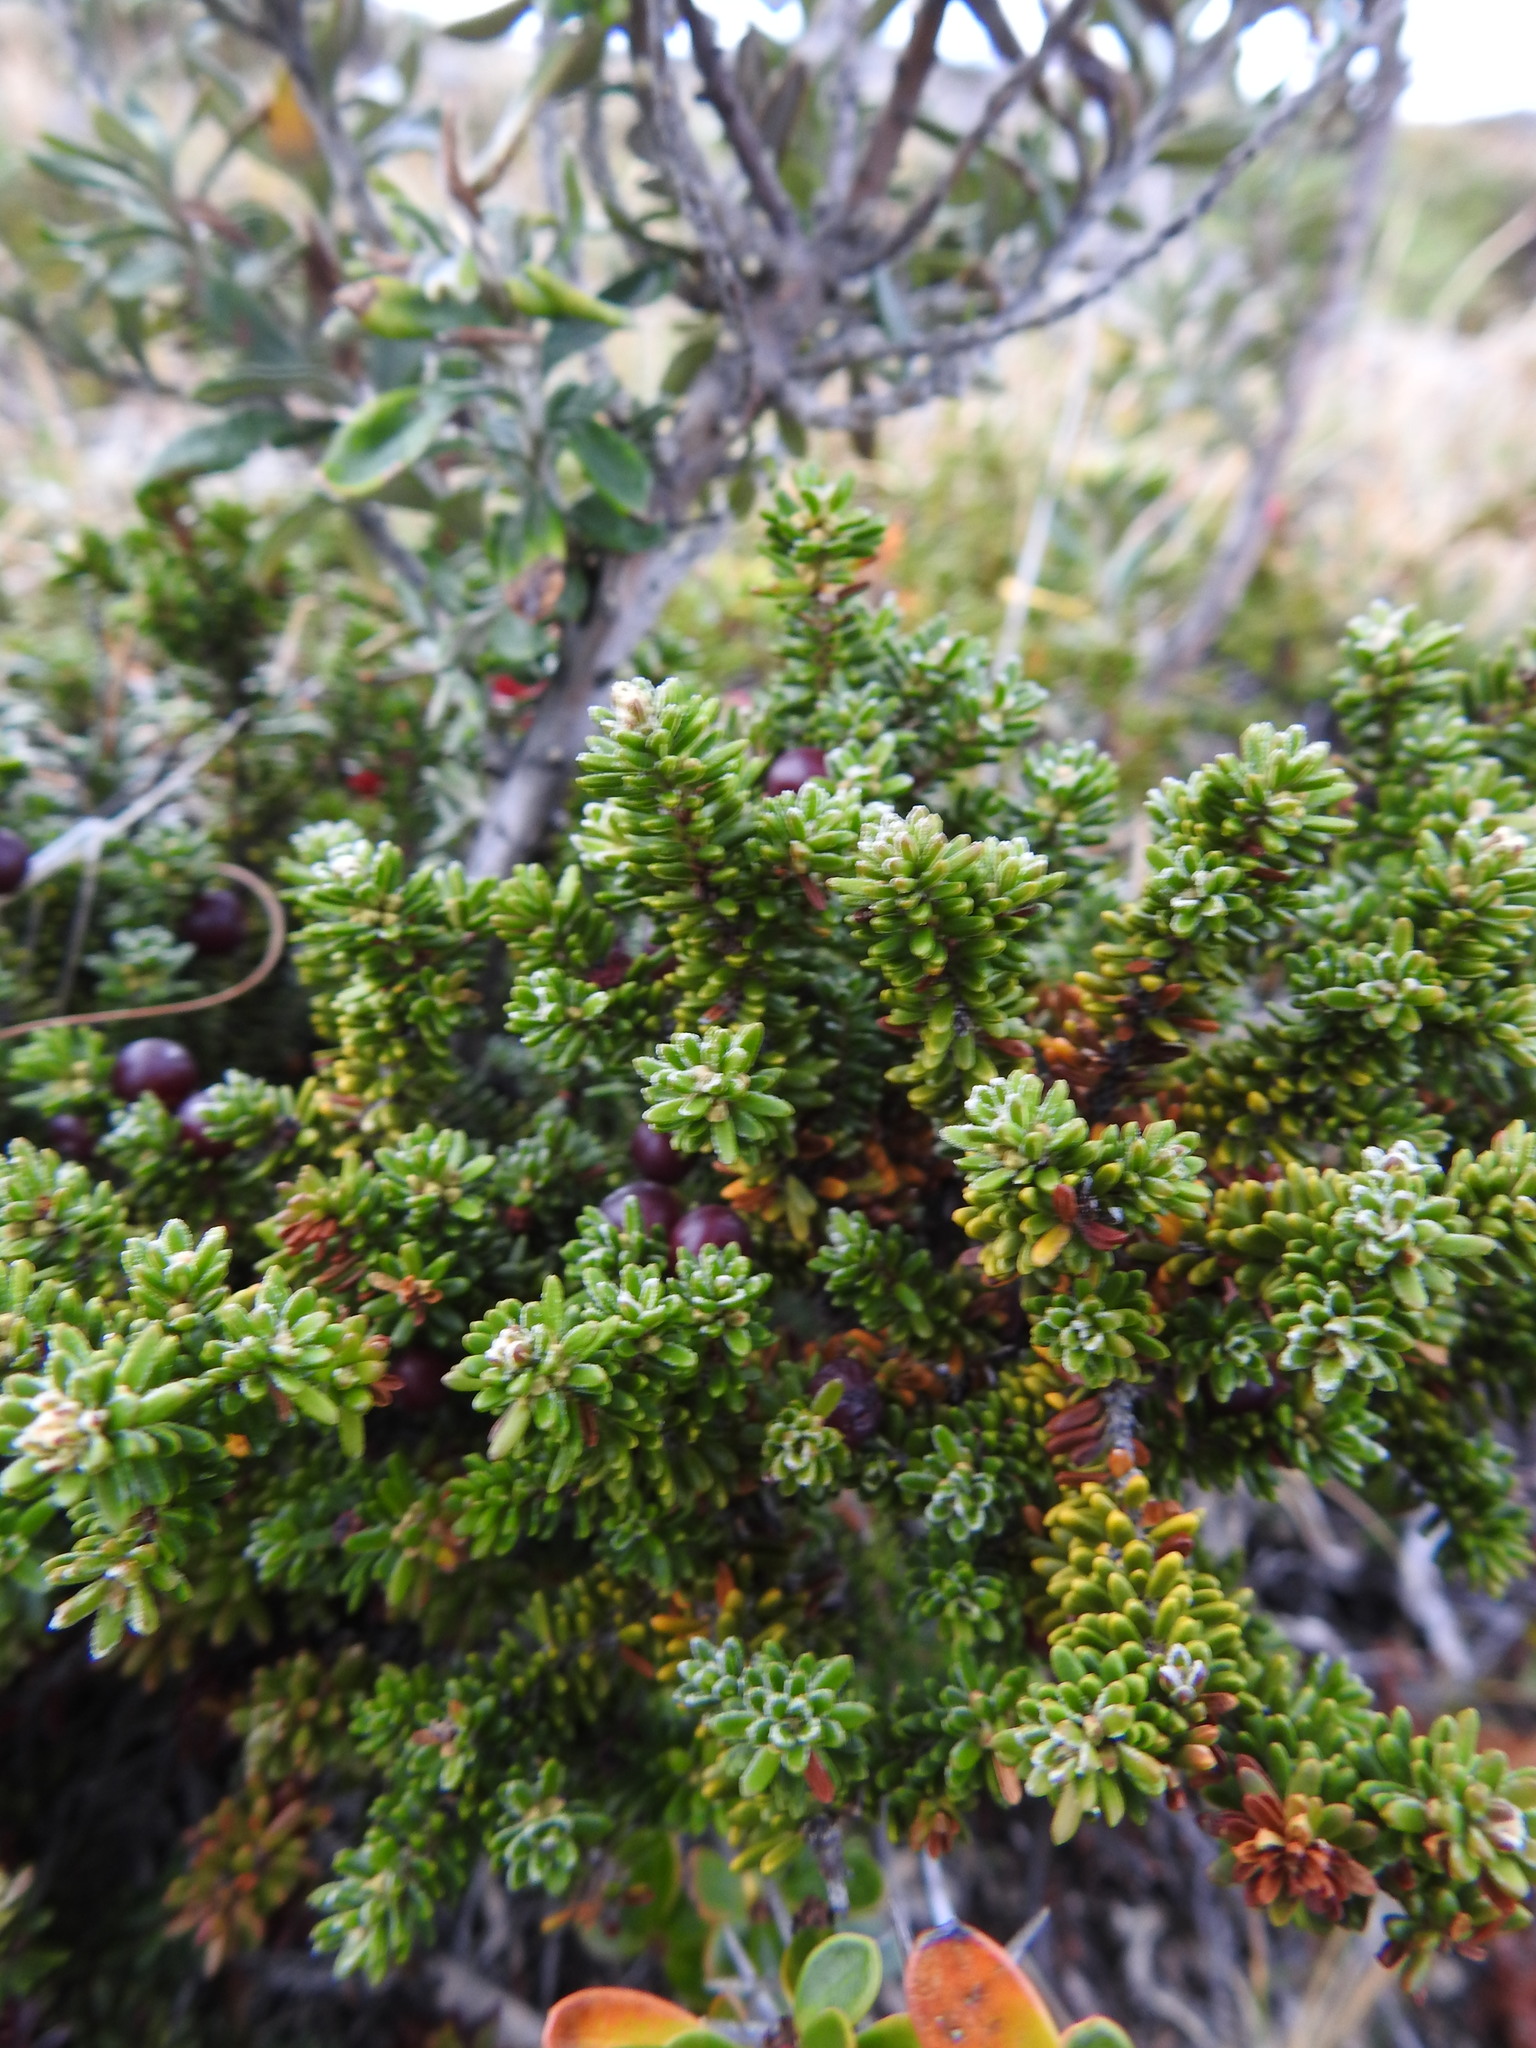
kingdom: Plantae
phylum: Tracheophyta
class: Magnoliopsida
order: Ericales
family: Ericaceae
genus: Empetrum
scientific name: Empetrum rubrum
